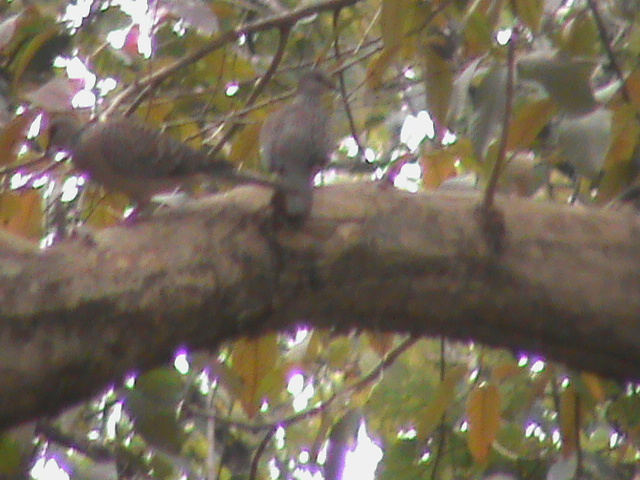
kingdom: Animalia
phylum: Chordata
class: Aves
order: Columbiformes
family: Columbidae
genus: Spilopelia
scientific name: Spilopelia chinensis
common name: Spotted dove
